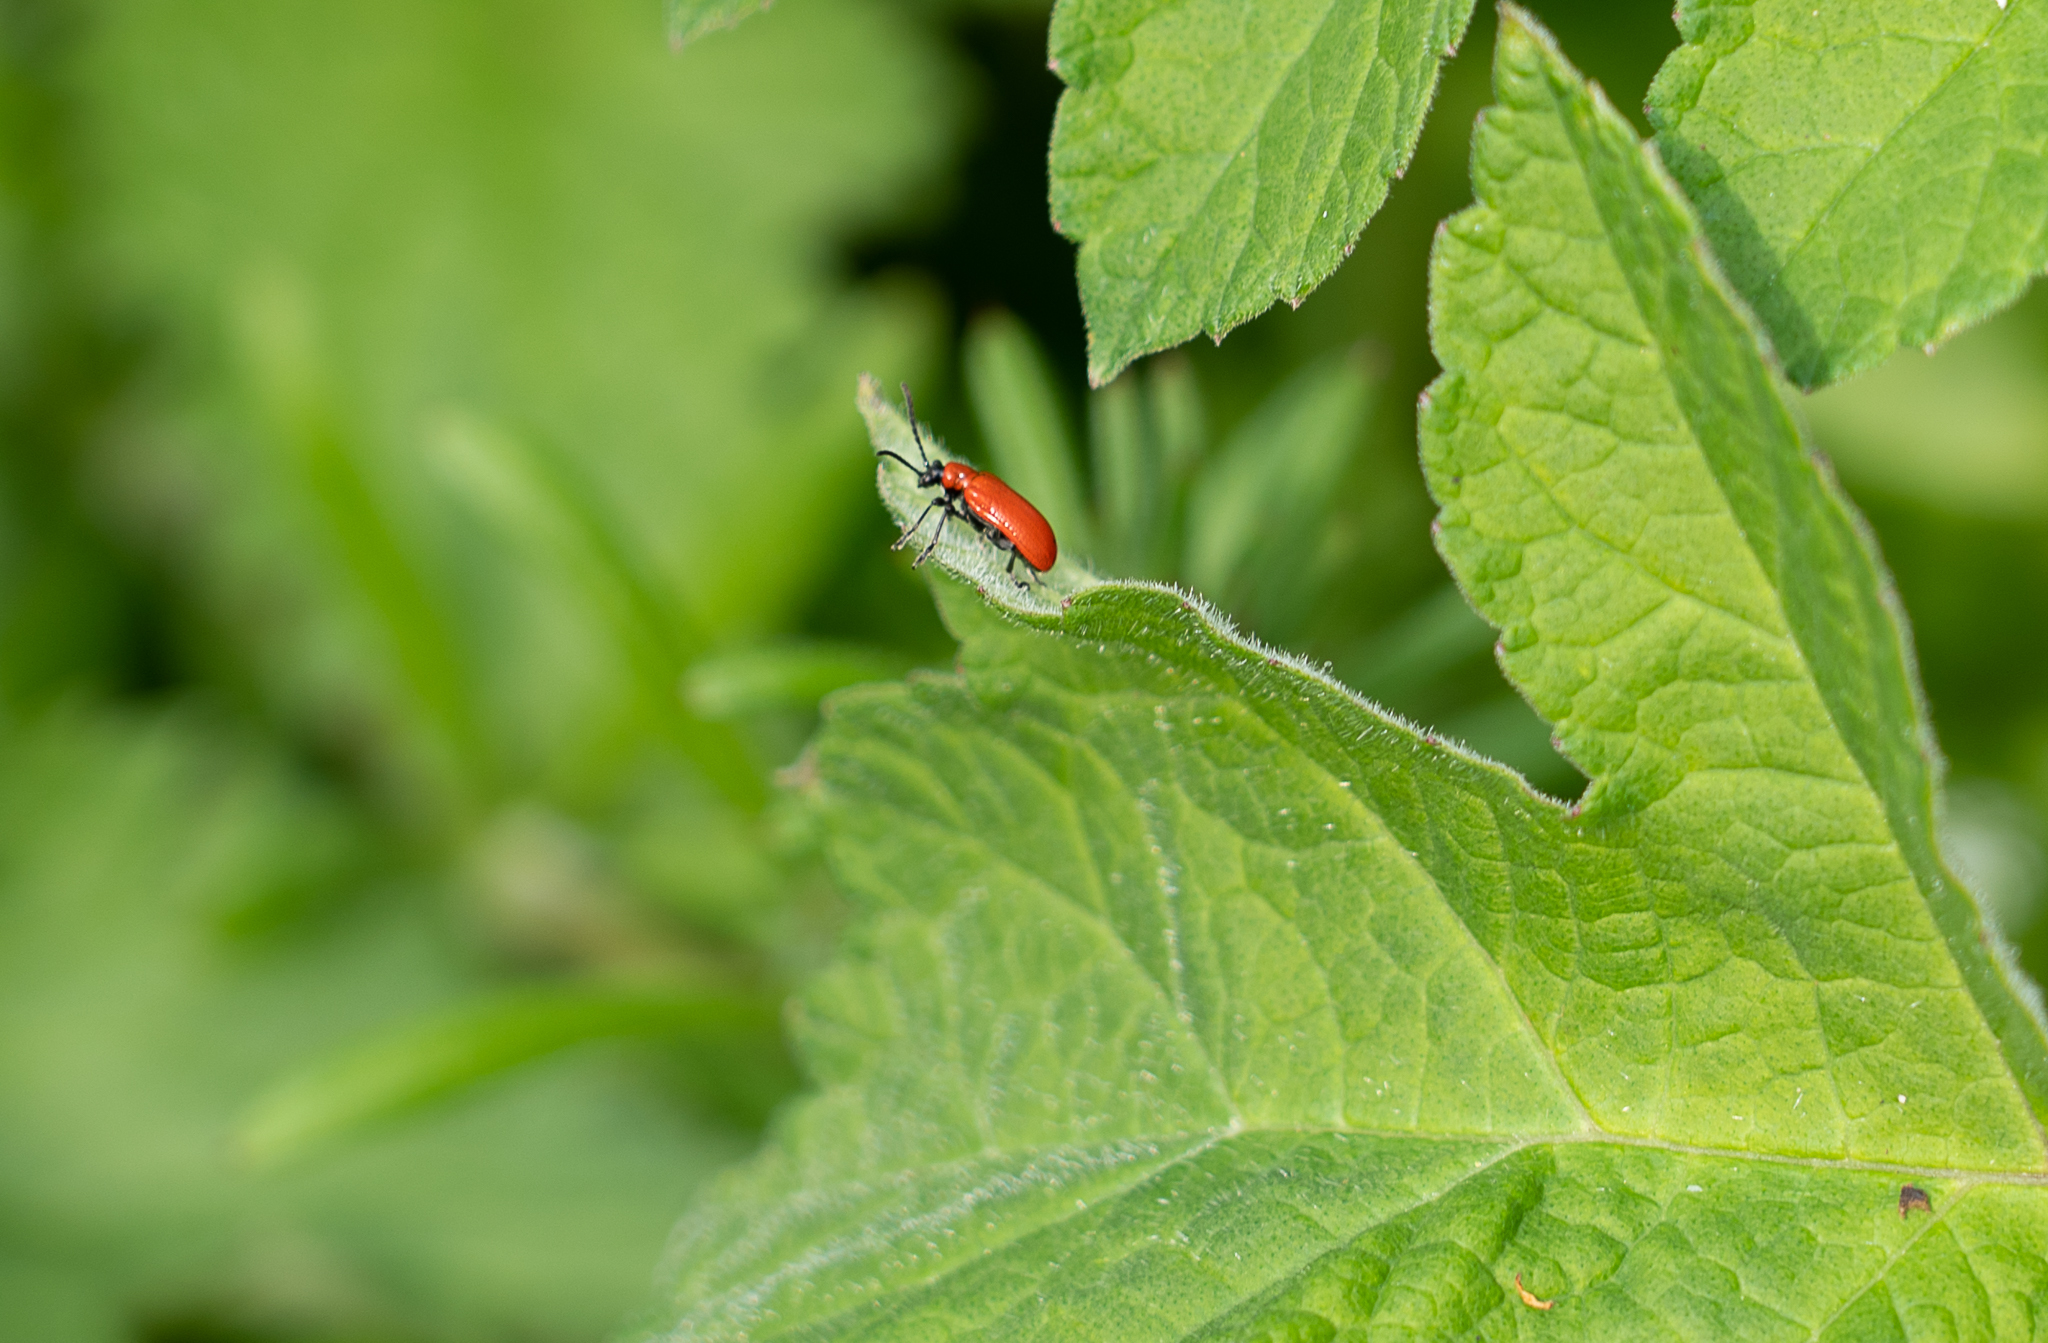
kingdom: Animalia
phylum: Arthropoda
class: Insecta
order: Coleoptera
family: Chrysomelidae
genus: Lilioceris
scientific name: Lilioceris lilii
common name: Lily beetle
